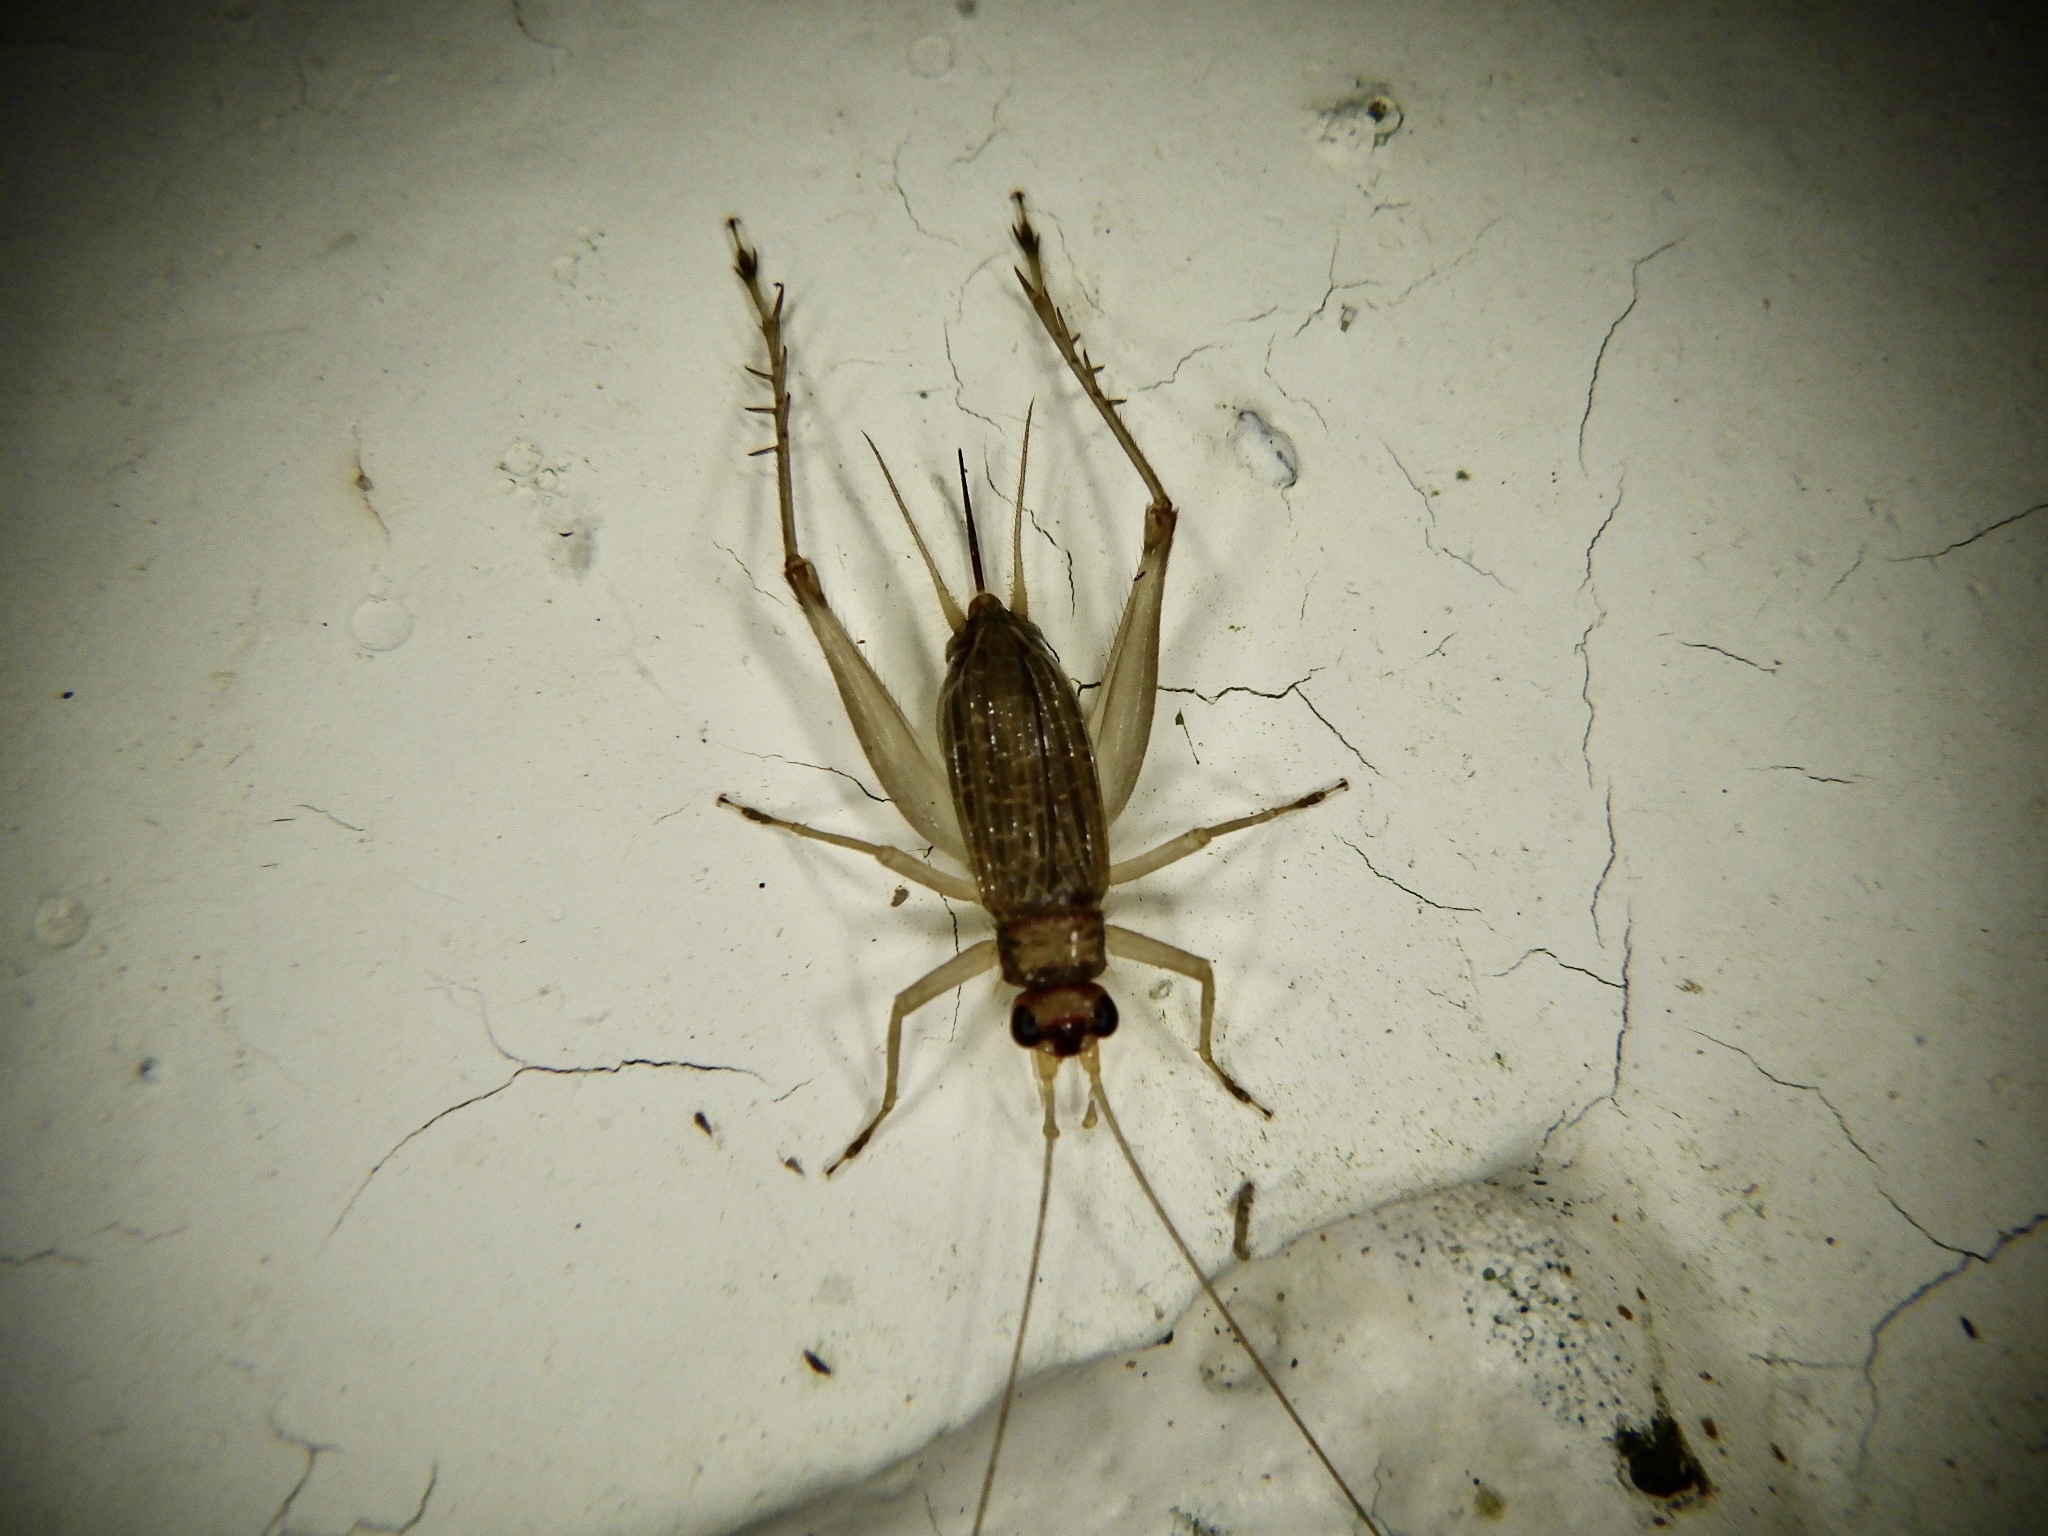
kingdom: Animalia
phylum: Arthropoda
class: Insecta
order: Orthoptera
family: Trigonidiidae
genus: Amusurgus
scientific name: Amusurgus genji
